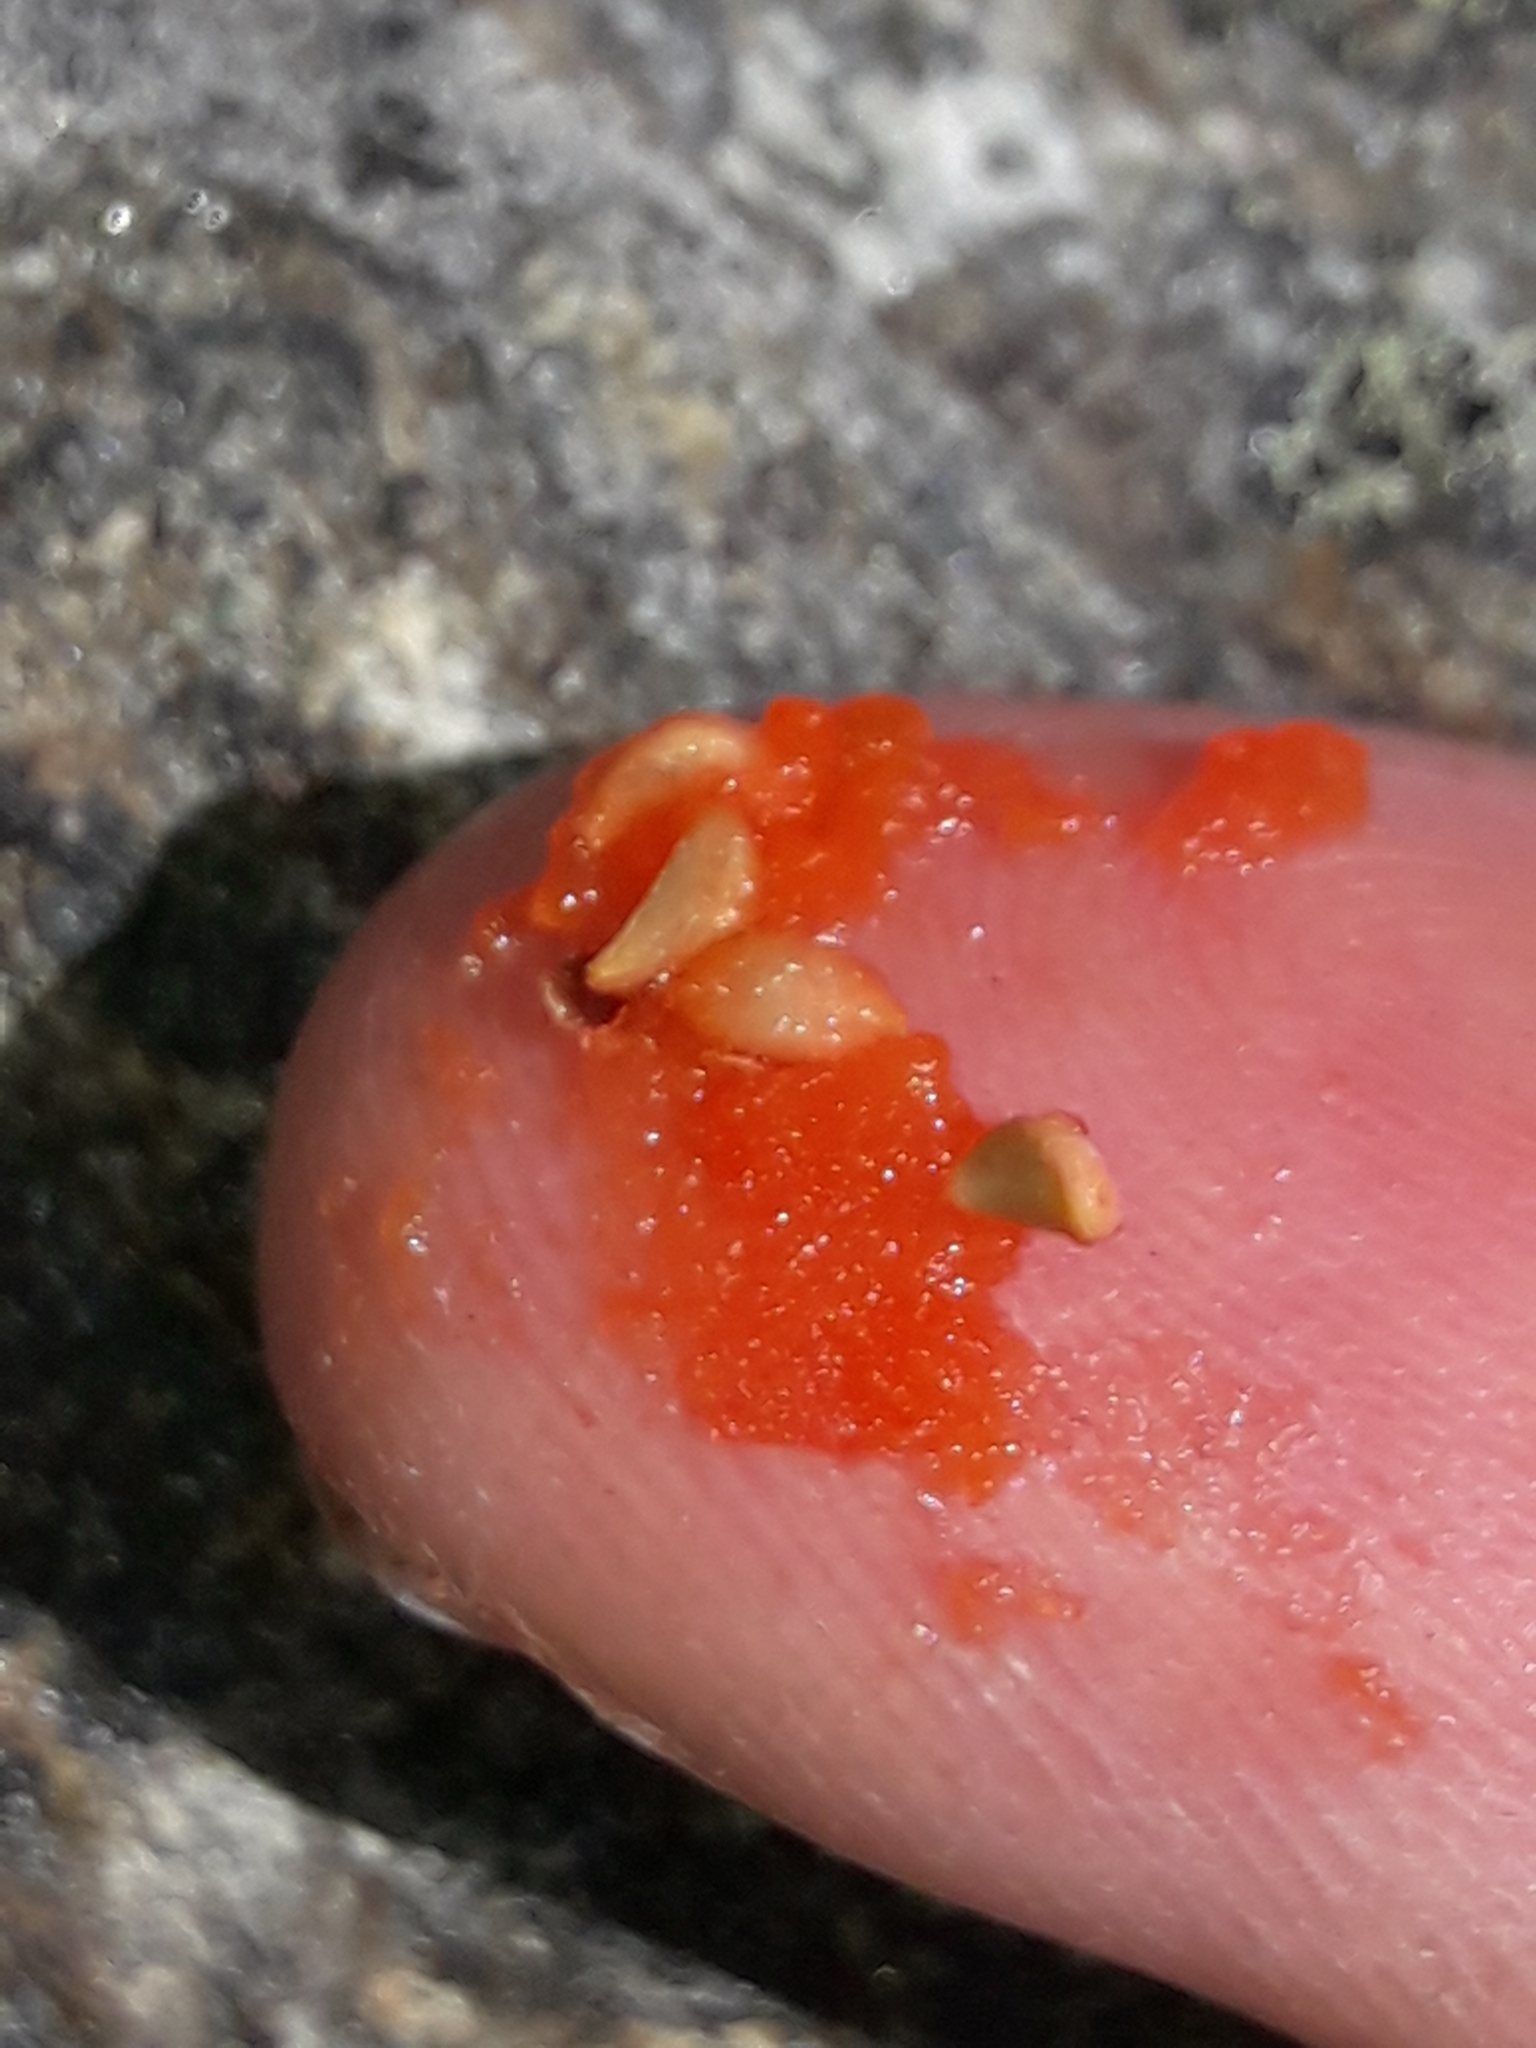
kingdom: Plantae
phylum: Tracheophyta
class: Magnoliopsida
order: Gentianales
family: Rubiaceae
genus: Coprosma
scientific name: Coprosma perpusilla
